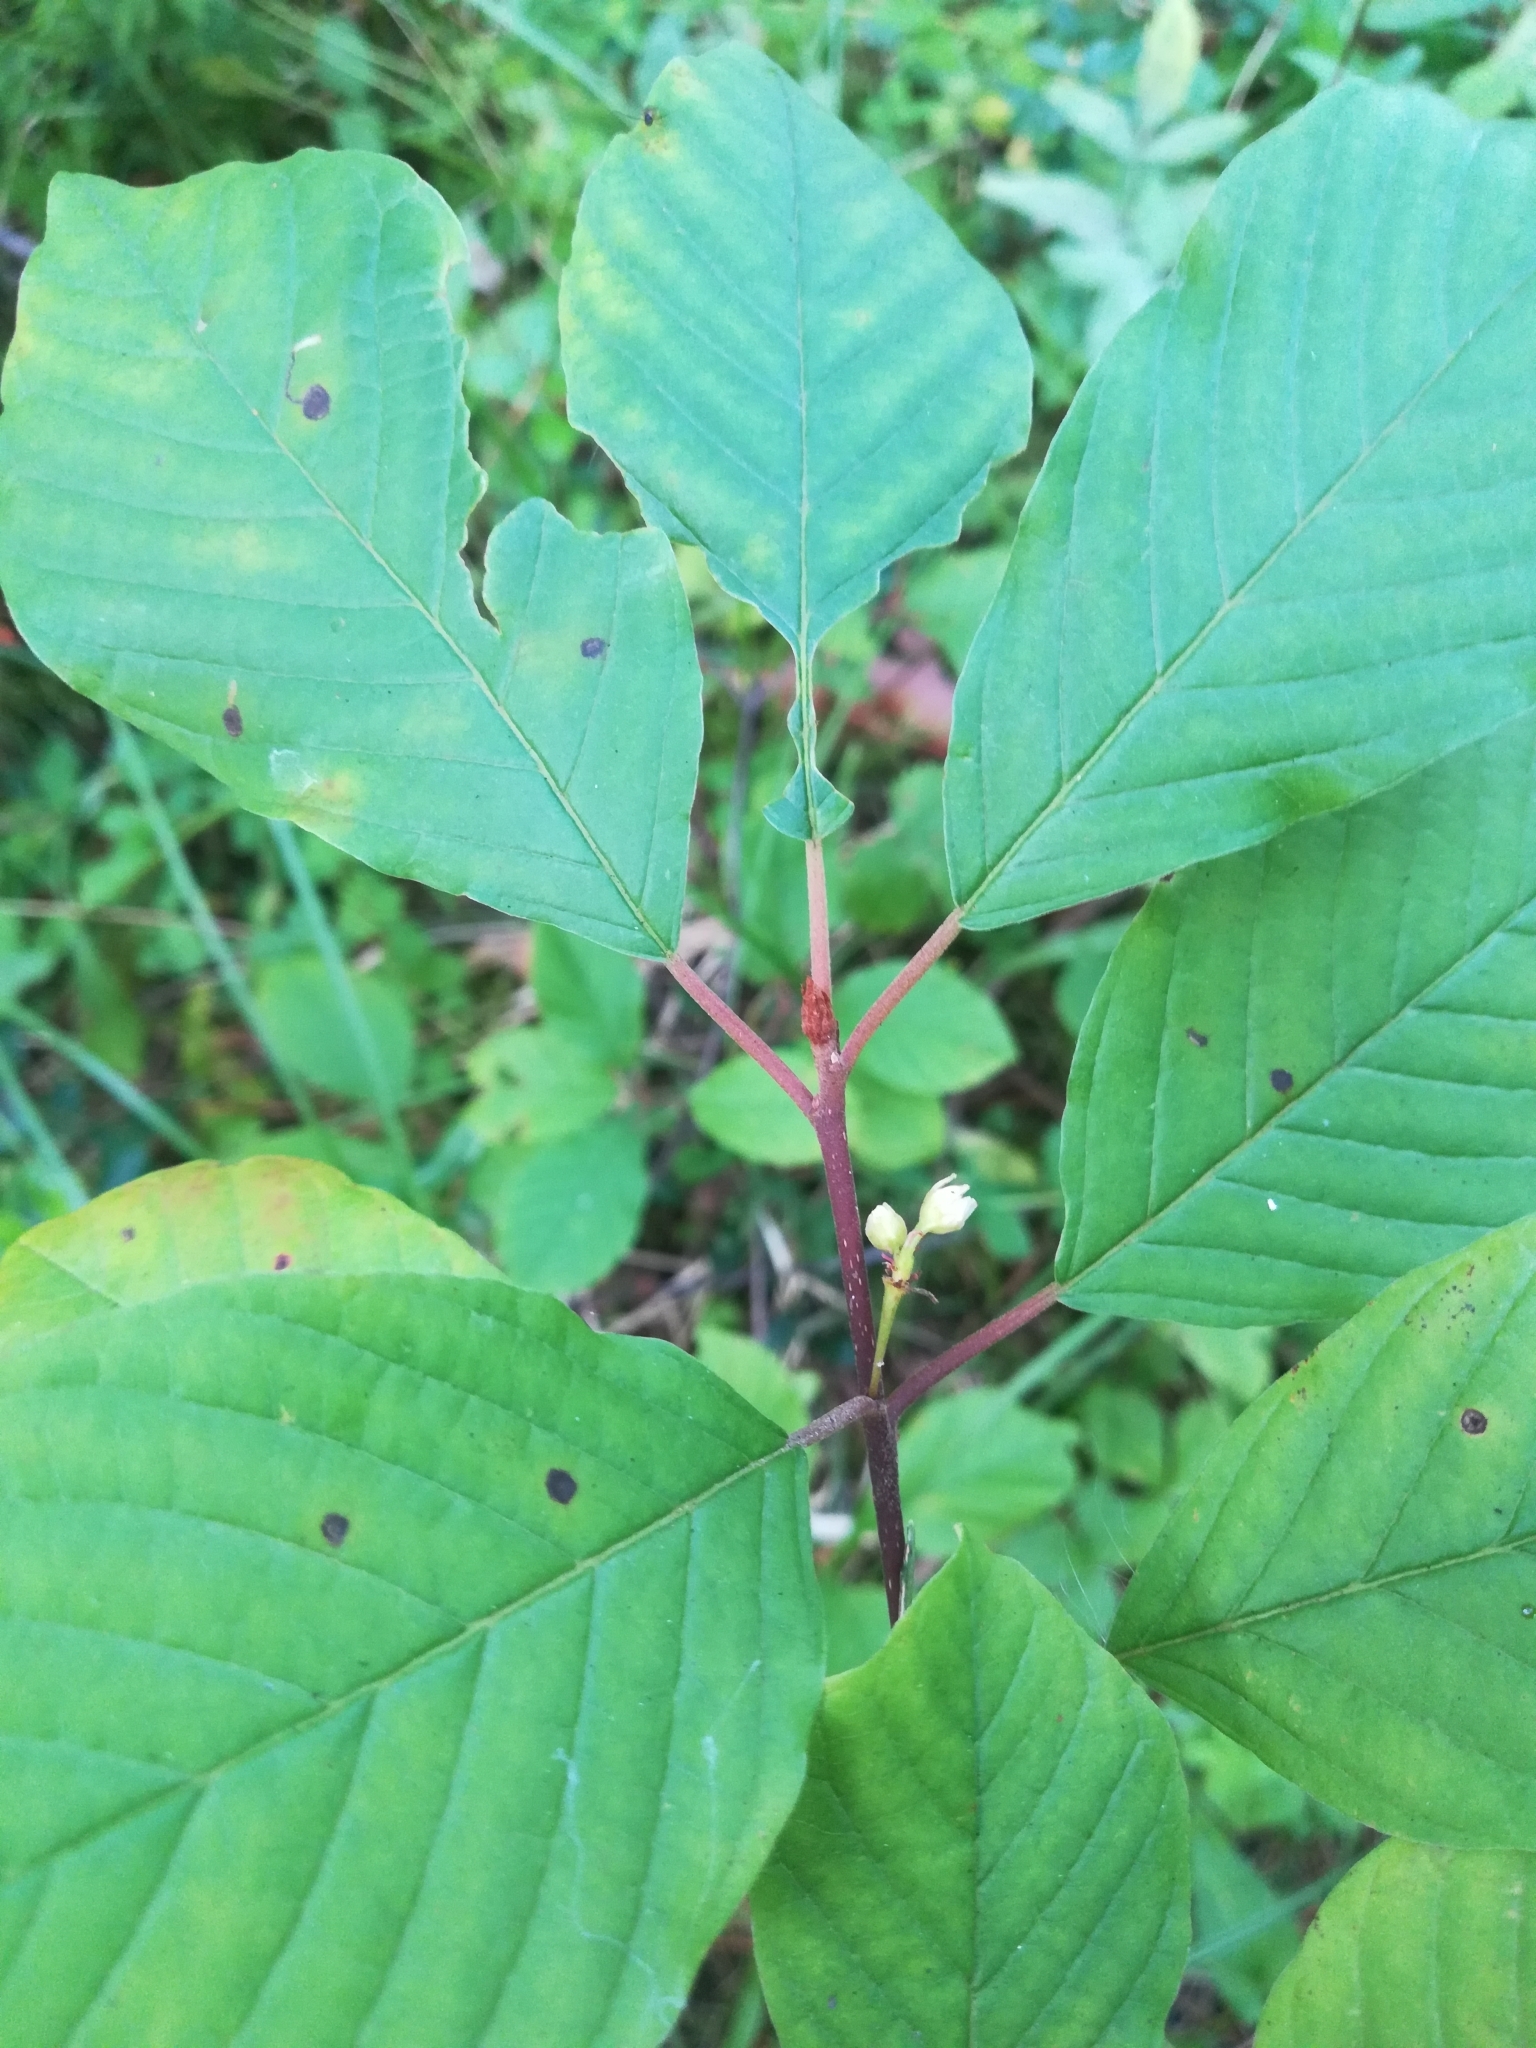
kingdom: Plantae
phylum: Tracheophyta
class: Magnoliopsida
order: Rosales
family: Rhamnaceae
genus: Frangula
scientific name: Frangula alnus
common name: Alder buckthorn
